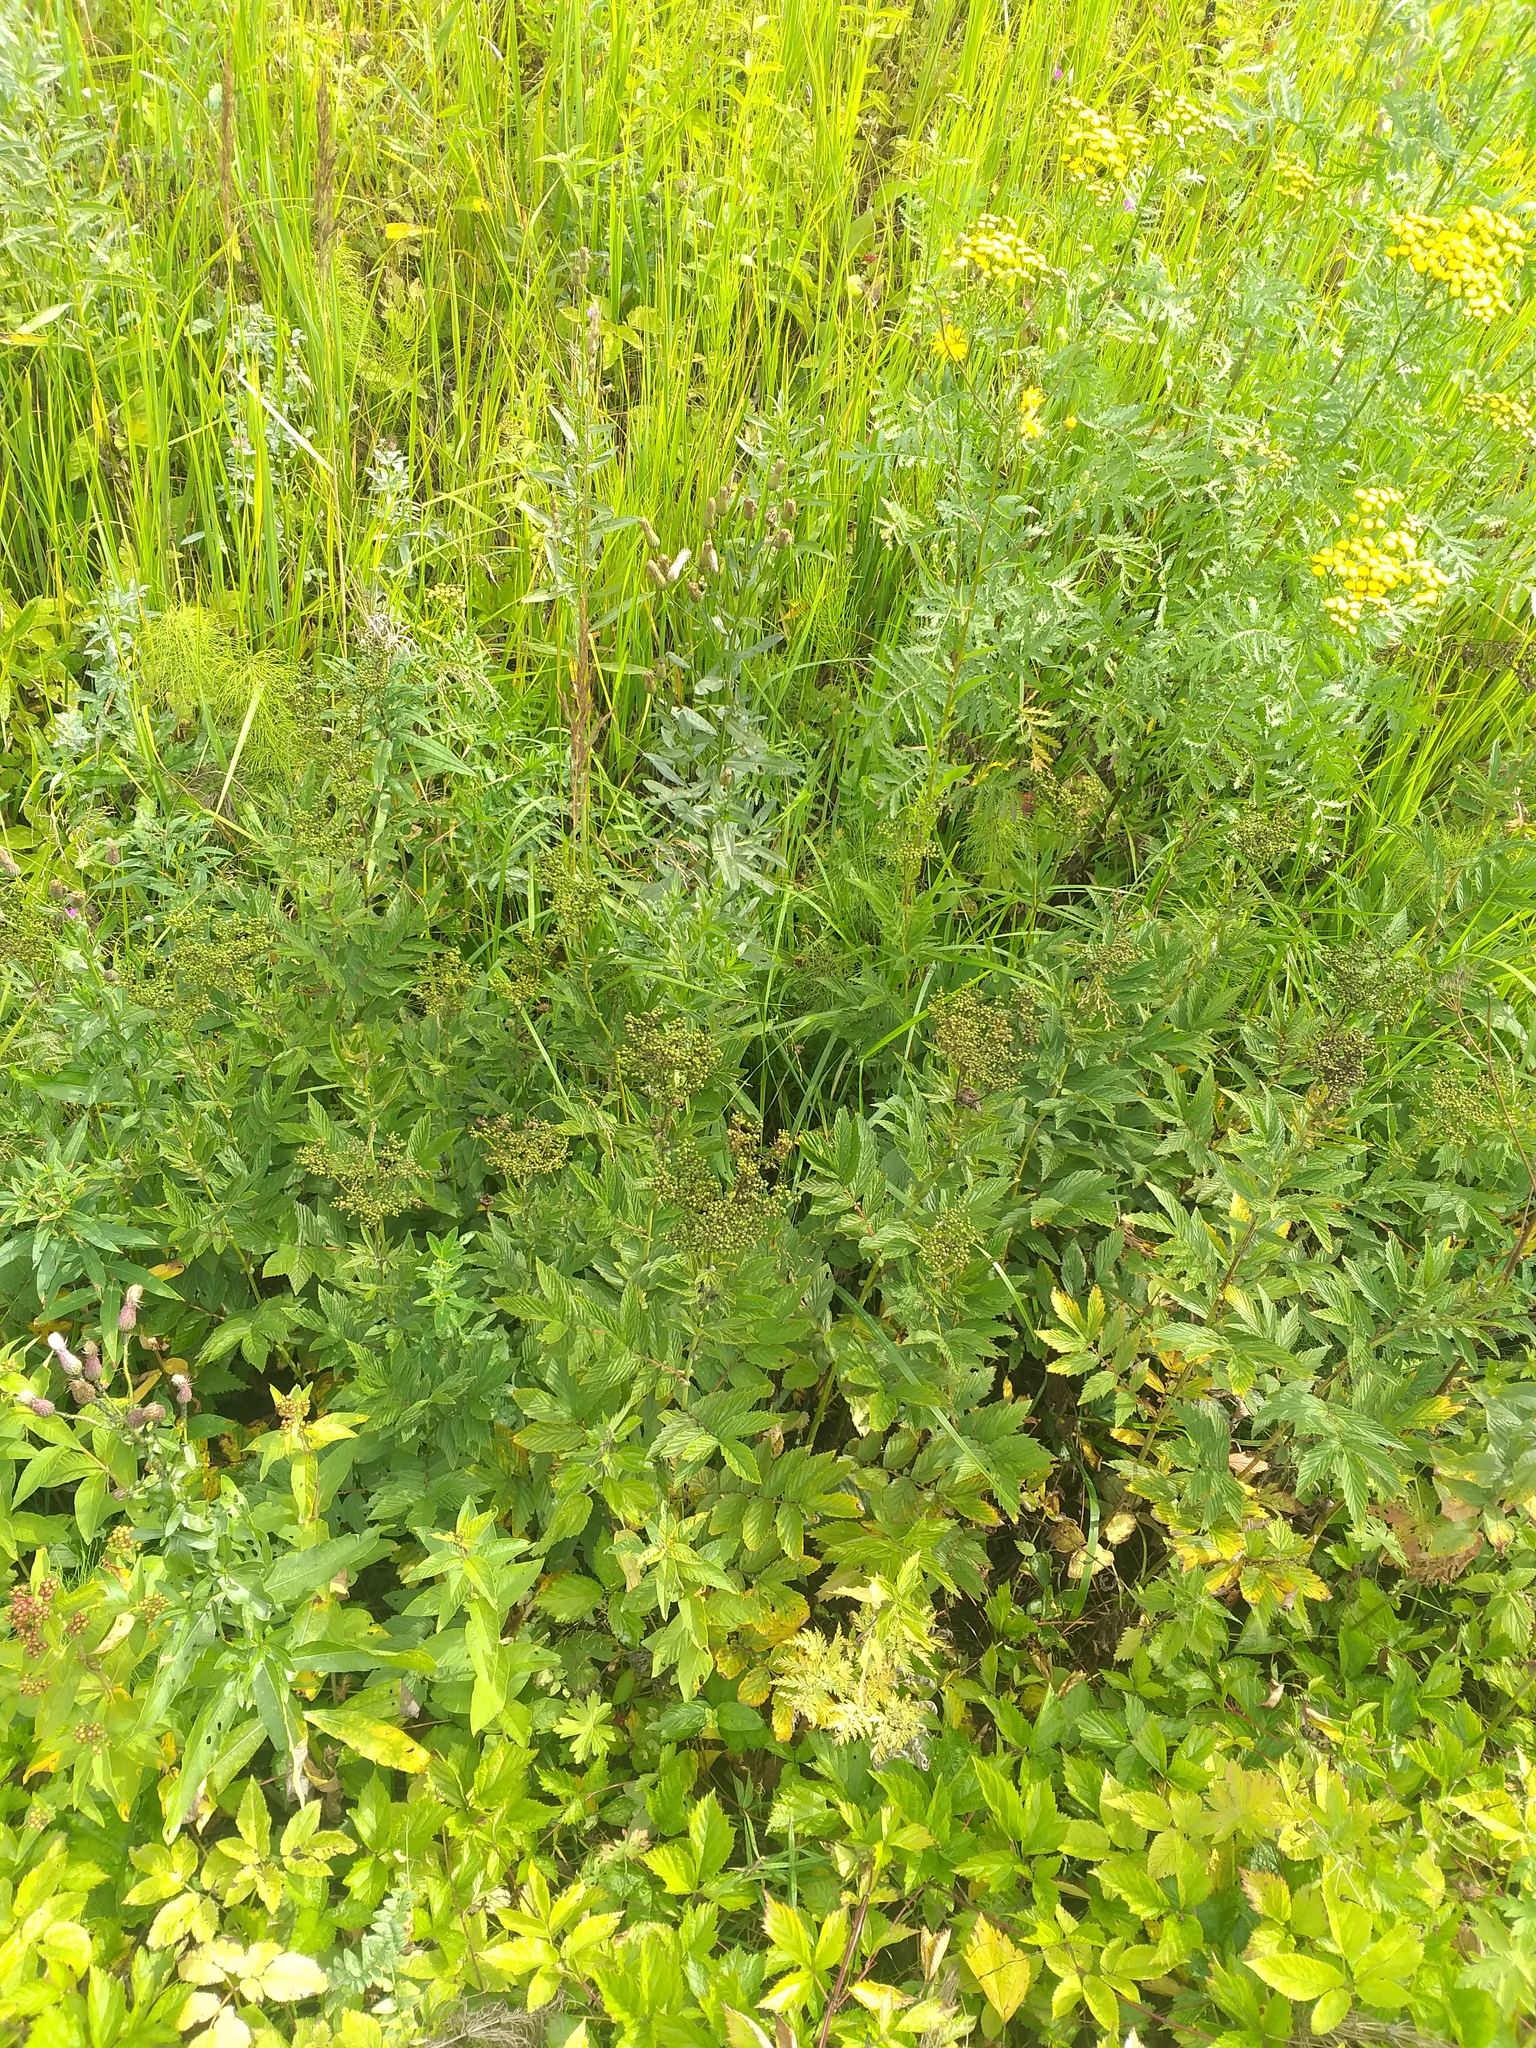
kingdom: Plantae
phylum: Tracheophyta
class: Magnoliopsida
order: Rosales
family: Rosaceae
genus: Filipendula
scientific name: Filipendula ulmaria
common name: Meadowsweet
